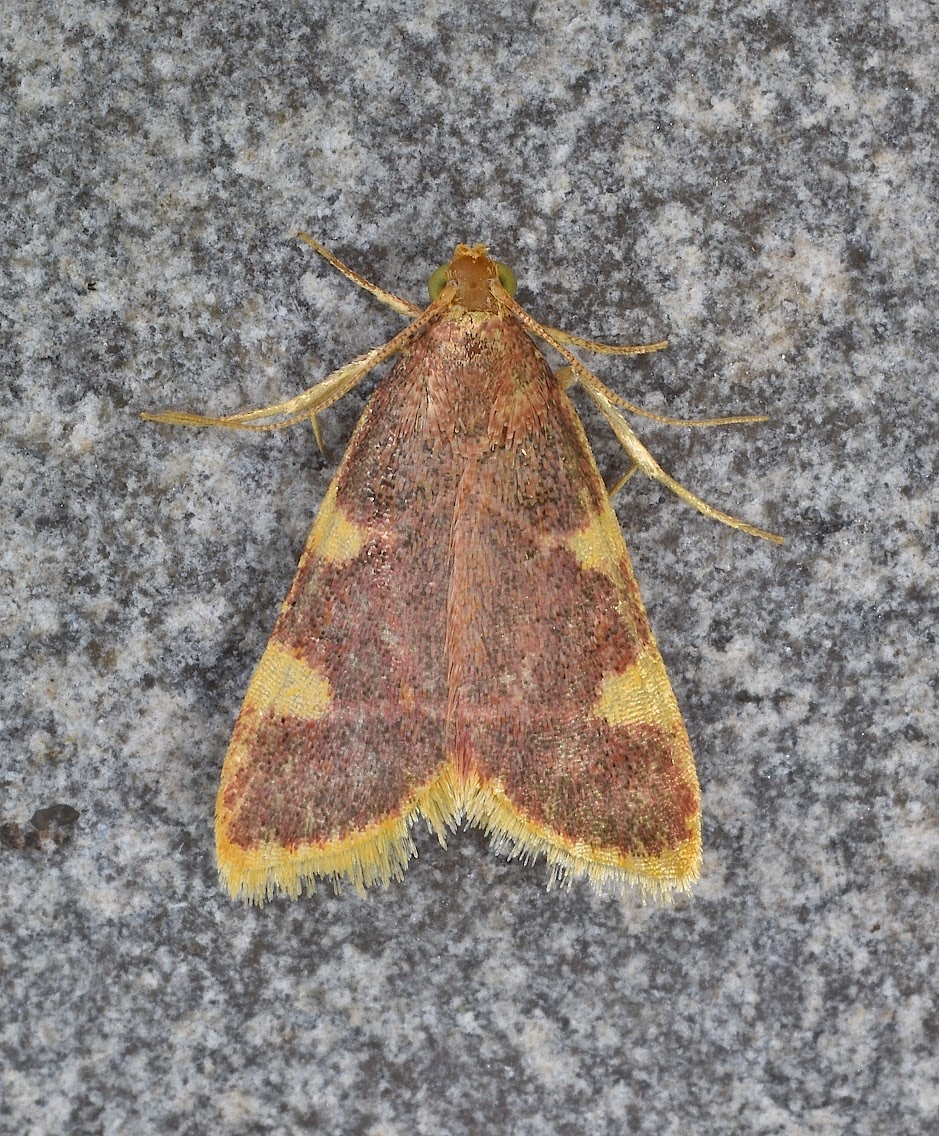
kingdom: Animalia
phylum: Arthropoda
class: Insecta
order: Lepidoptera
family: Pyralidae
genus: Hypsopygia
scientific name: Hypsopygia costalis
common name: Gold triangle
